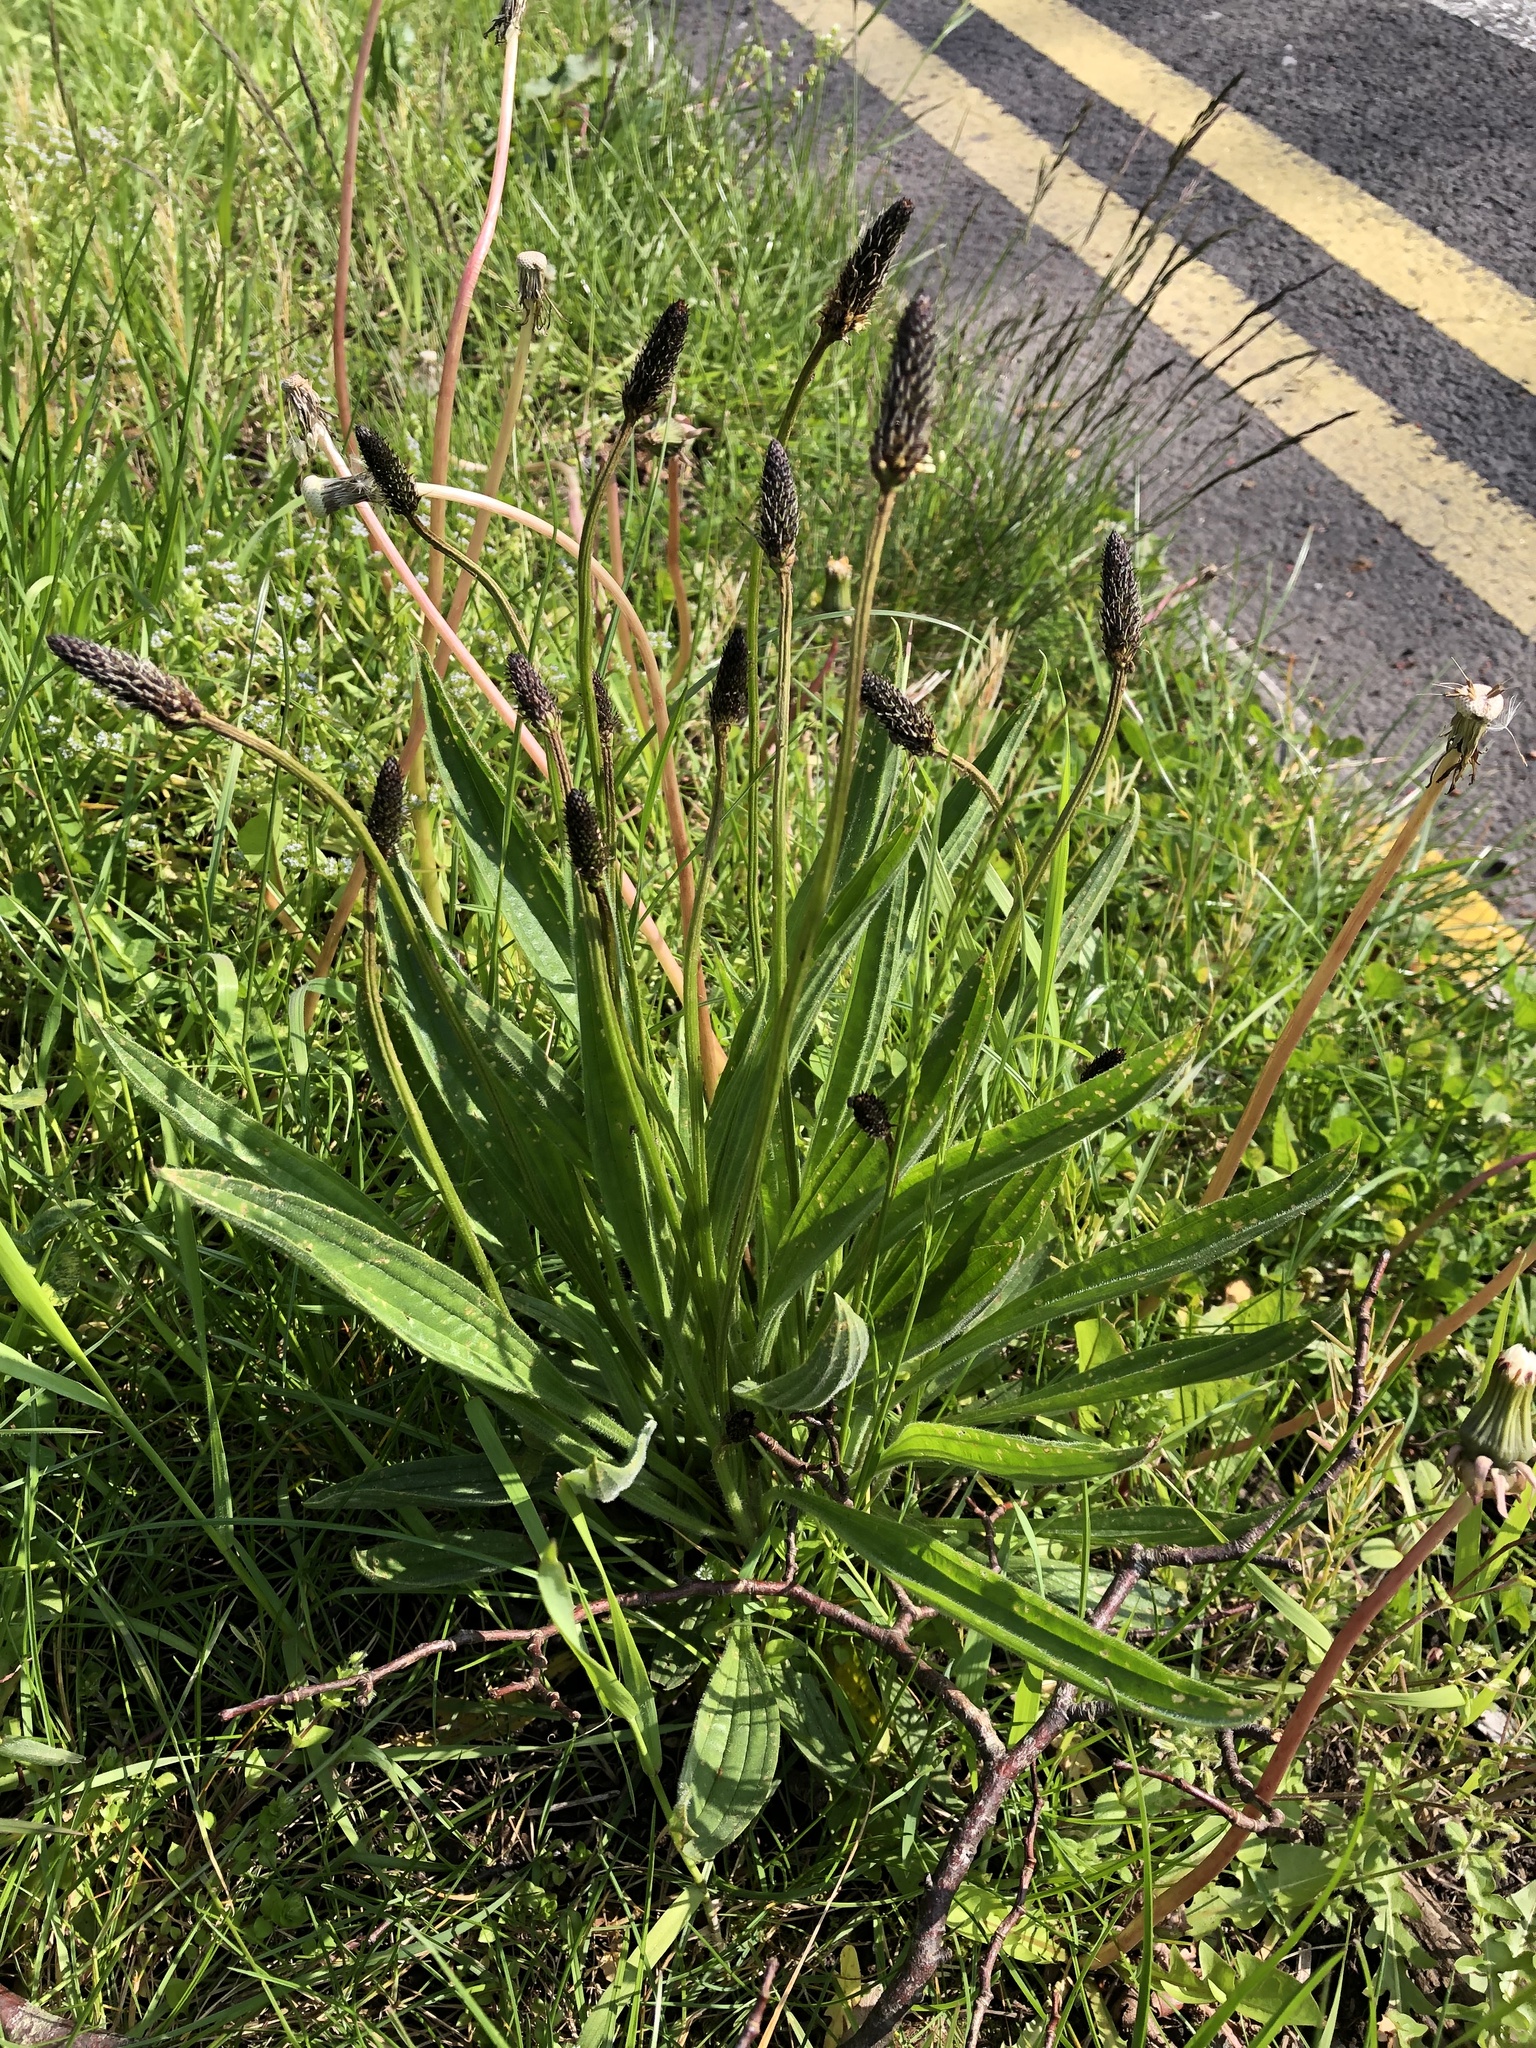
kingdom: Plantae
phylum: Tracheophyta
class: Magnoliopsida
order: Lamiales
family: Plantaginaceae
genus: Plantago
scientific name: Plantago lanceolata
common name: Ribwort plantain
